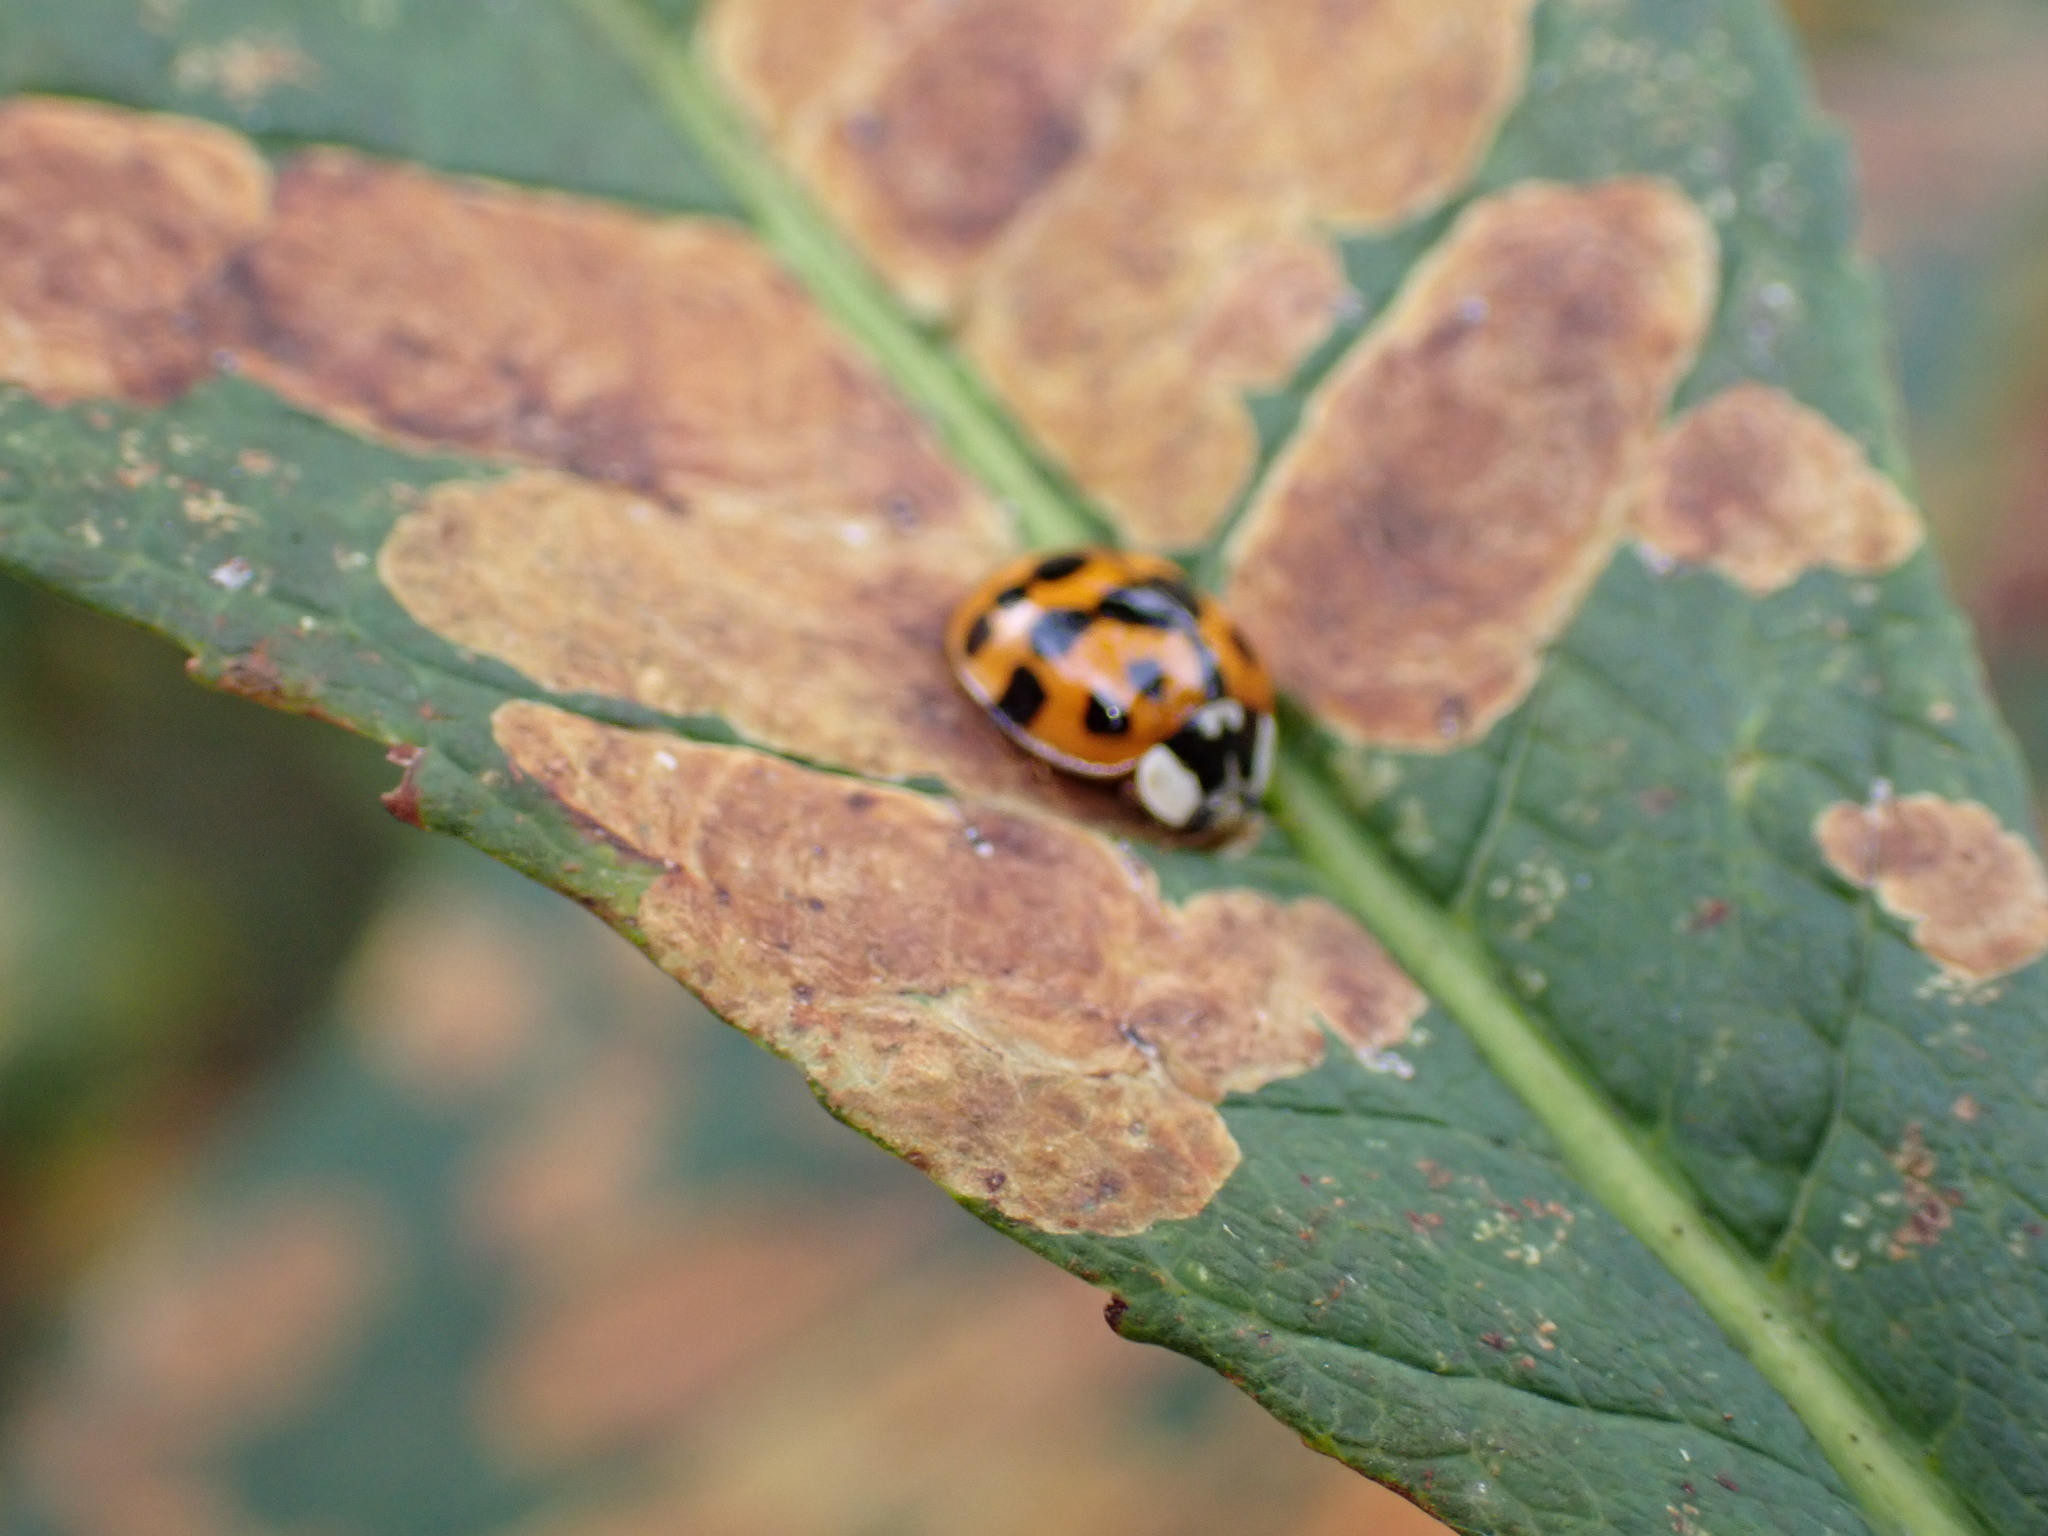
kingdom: Animalia
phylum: Arthropoda
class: Insecta
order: Coleoptera
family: Coccinellidae
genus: Harmonia
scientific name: Harmonia axyridis
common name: Harlequin ladybird
